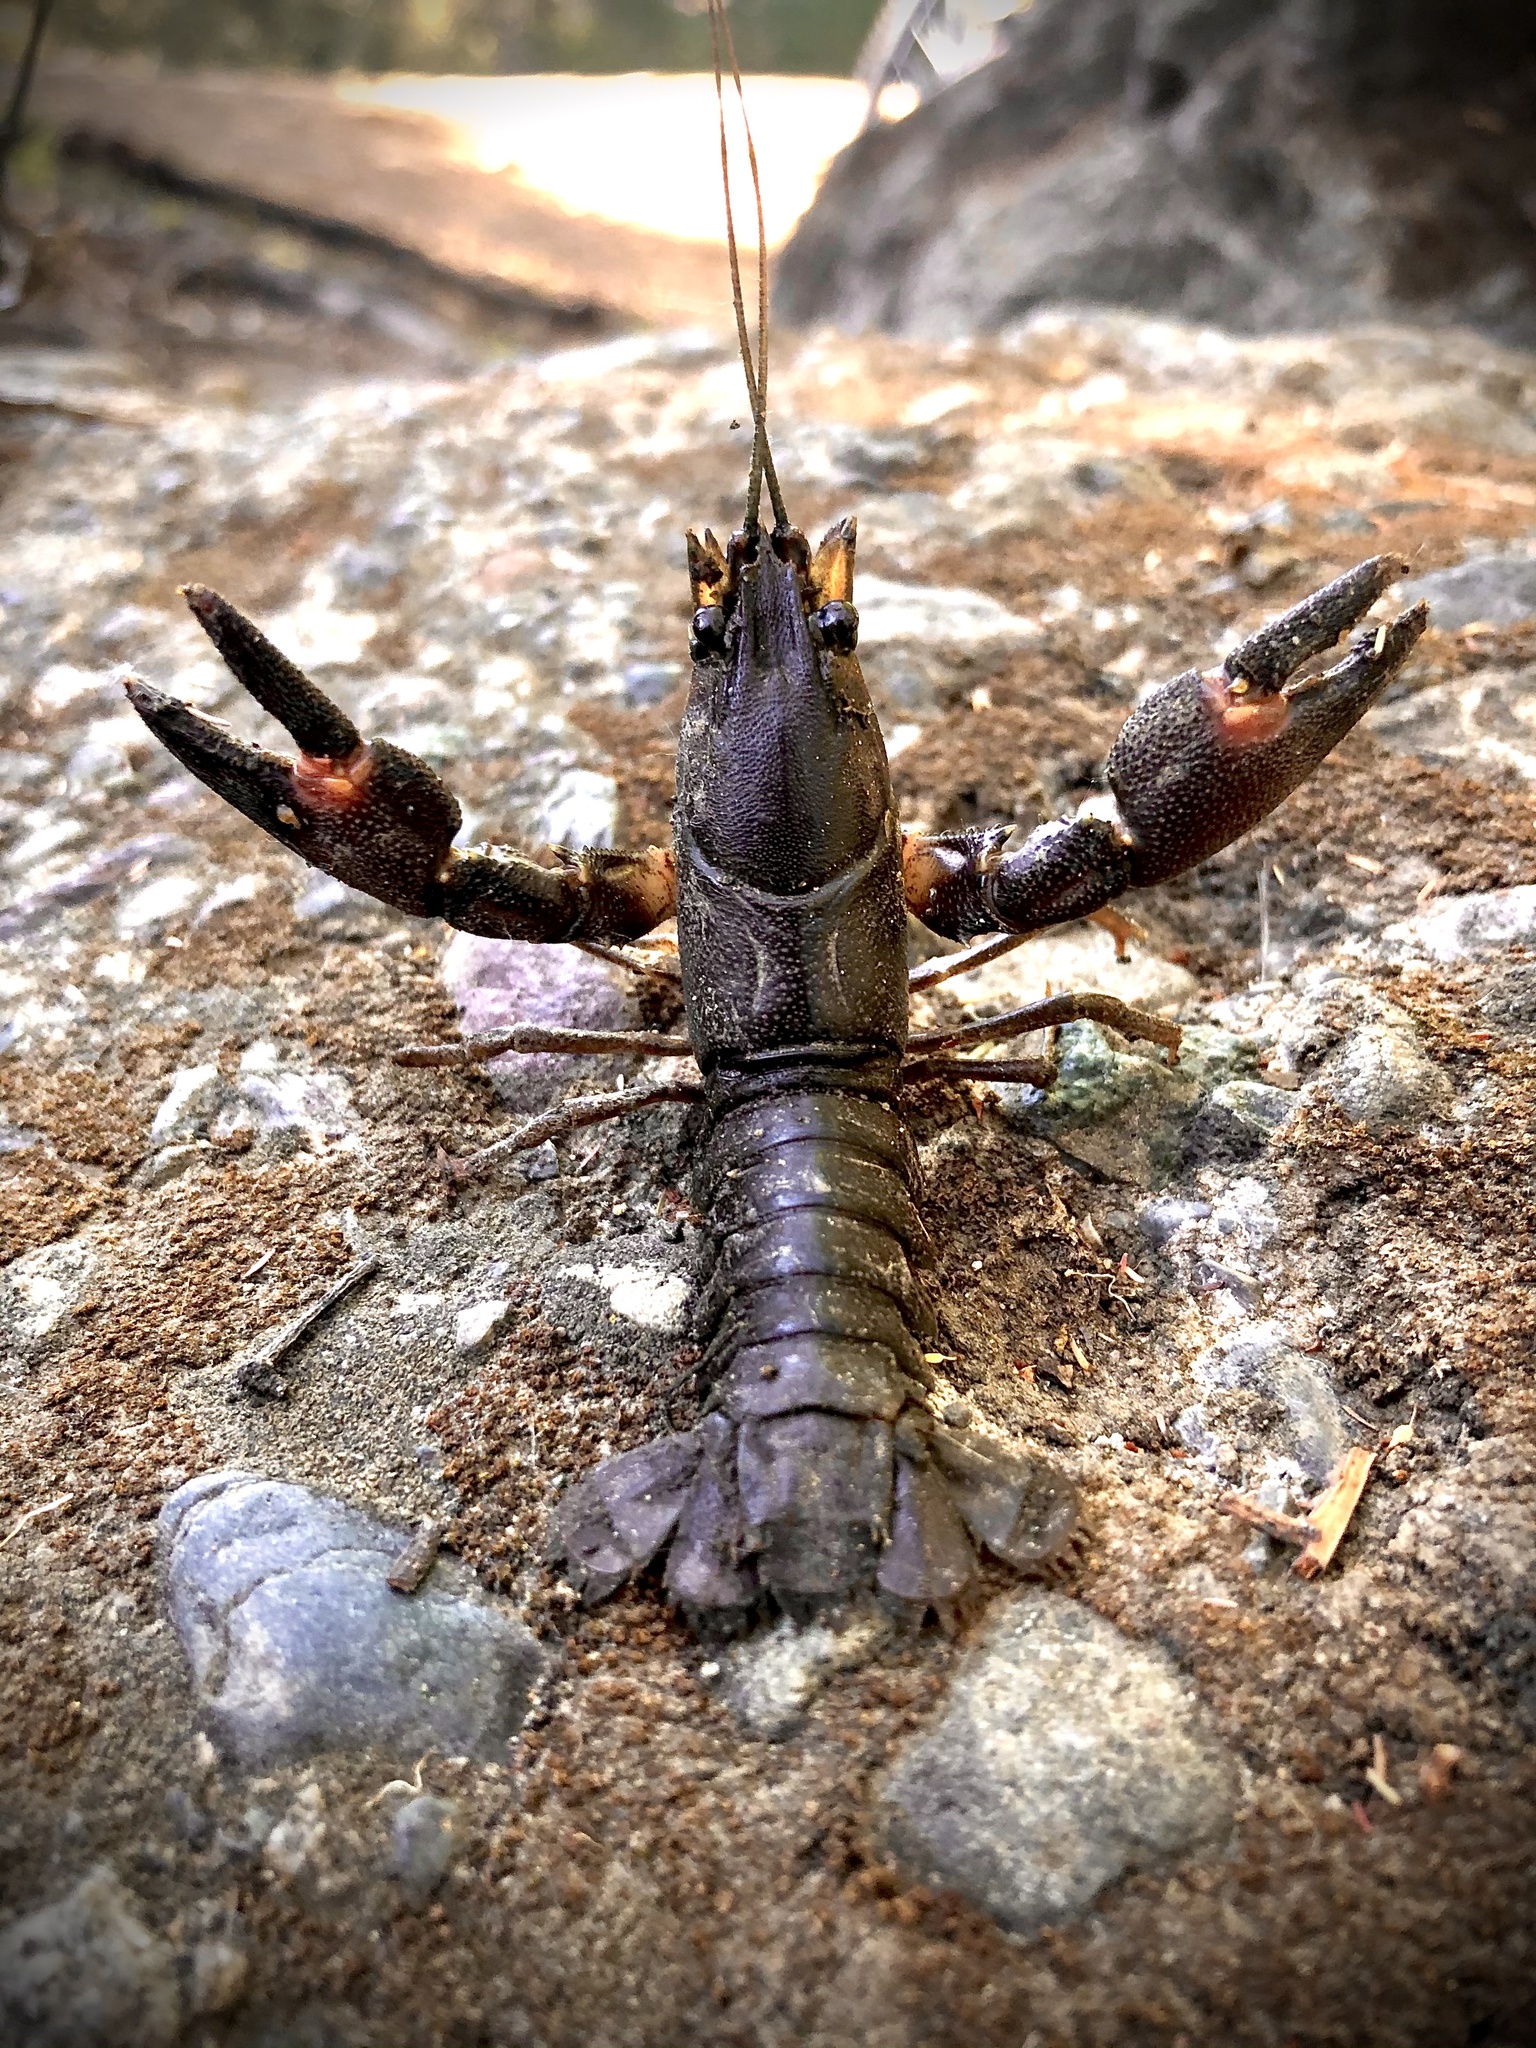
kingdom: Animalia
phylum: Arthropoda
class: Malacostraca
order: Decapoda
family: Astacidae
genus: Pacifastacus
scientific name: Pacifastacus leniusculus
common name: Signal crayfish
